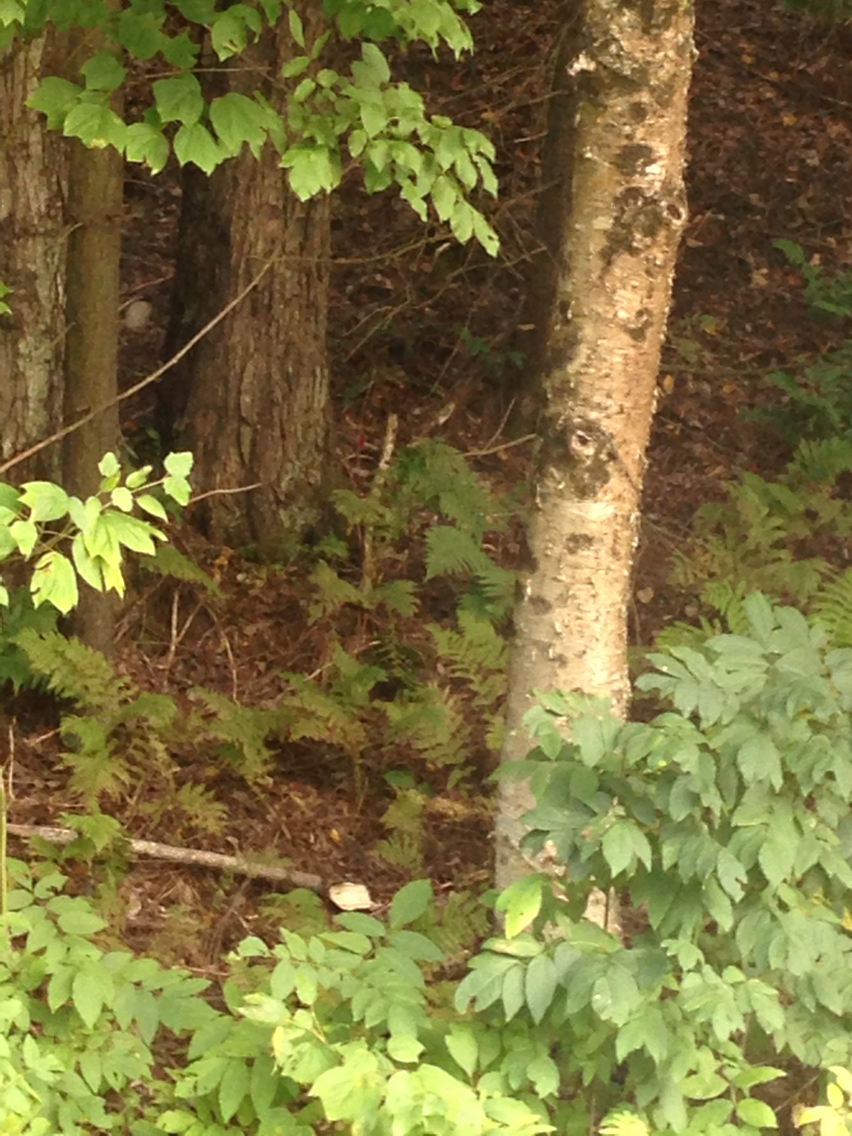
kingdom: Plantae
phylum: Tracheophyta
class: Magnoliopsida
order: Fagales
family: Betulaceae
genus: Betula
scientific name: Betula alleghaniensis
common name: Yellow birch
